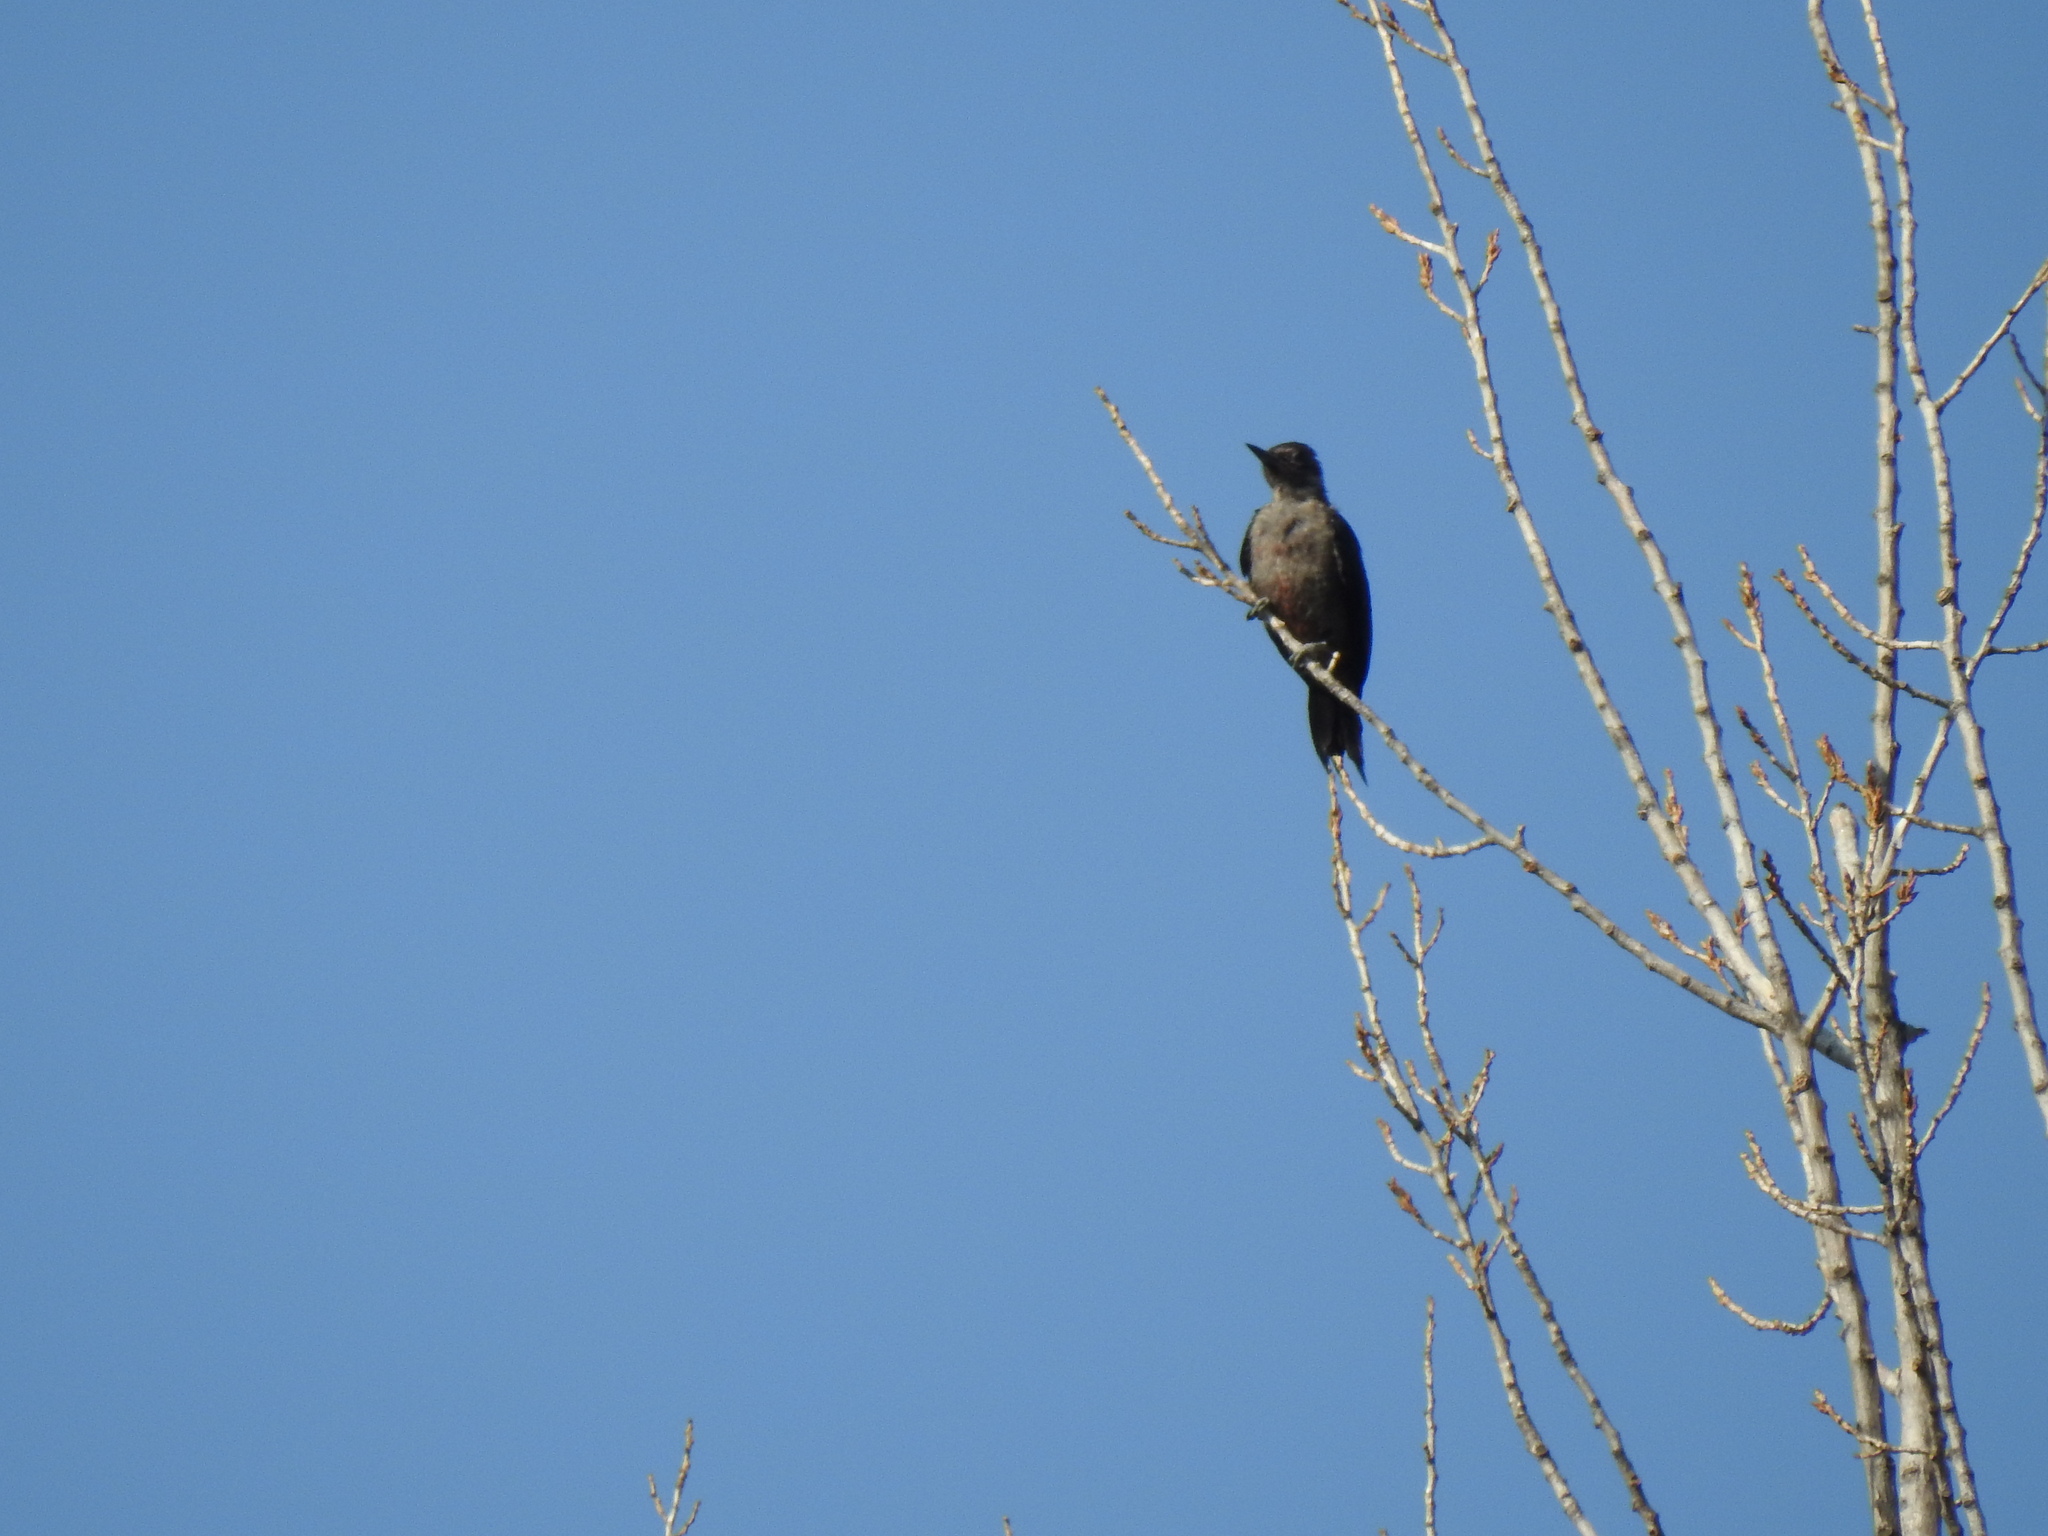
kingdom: Animalia
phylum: Chordata
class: Aves
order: Piciformes
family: Picidae
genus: Melanerpes
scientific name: Melanerpes lewis
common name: Lewis's woodpecker
